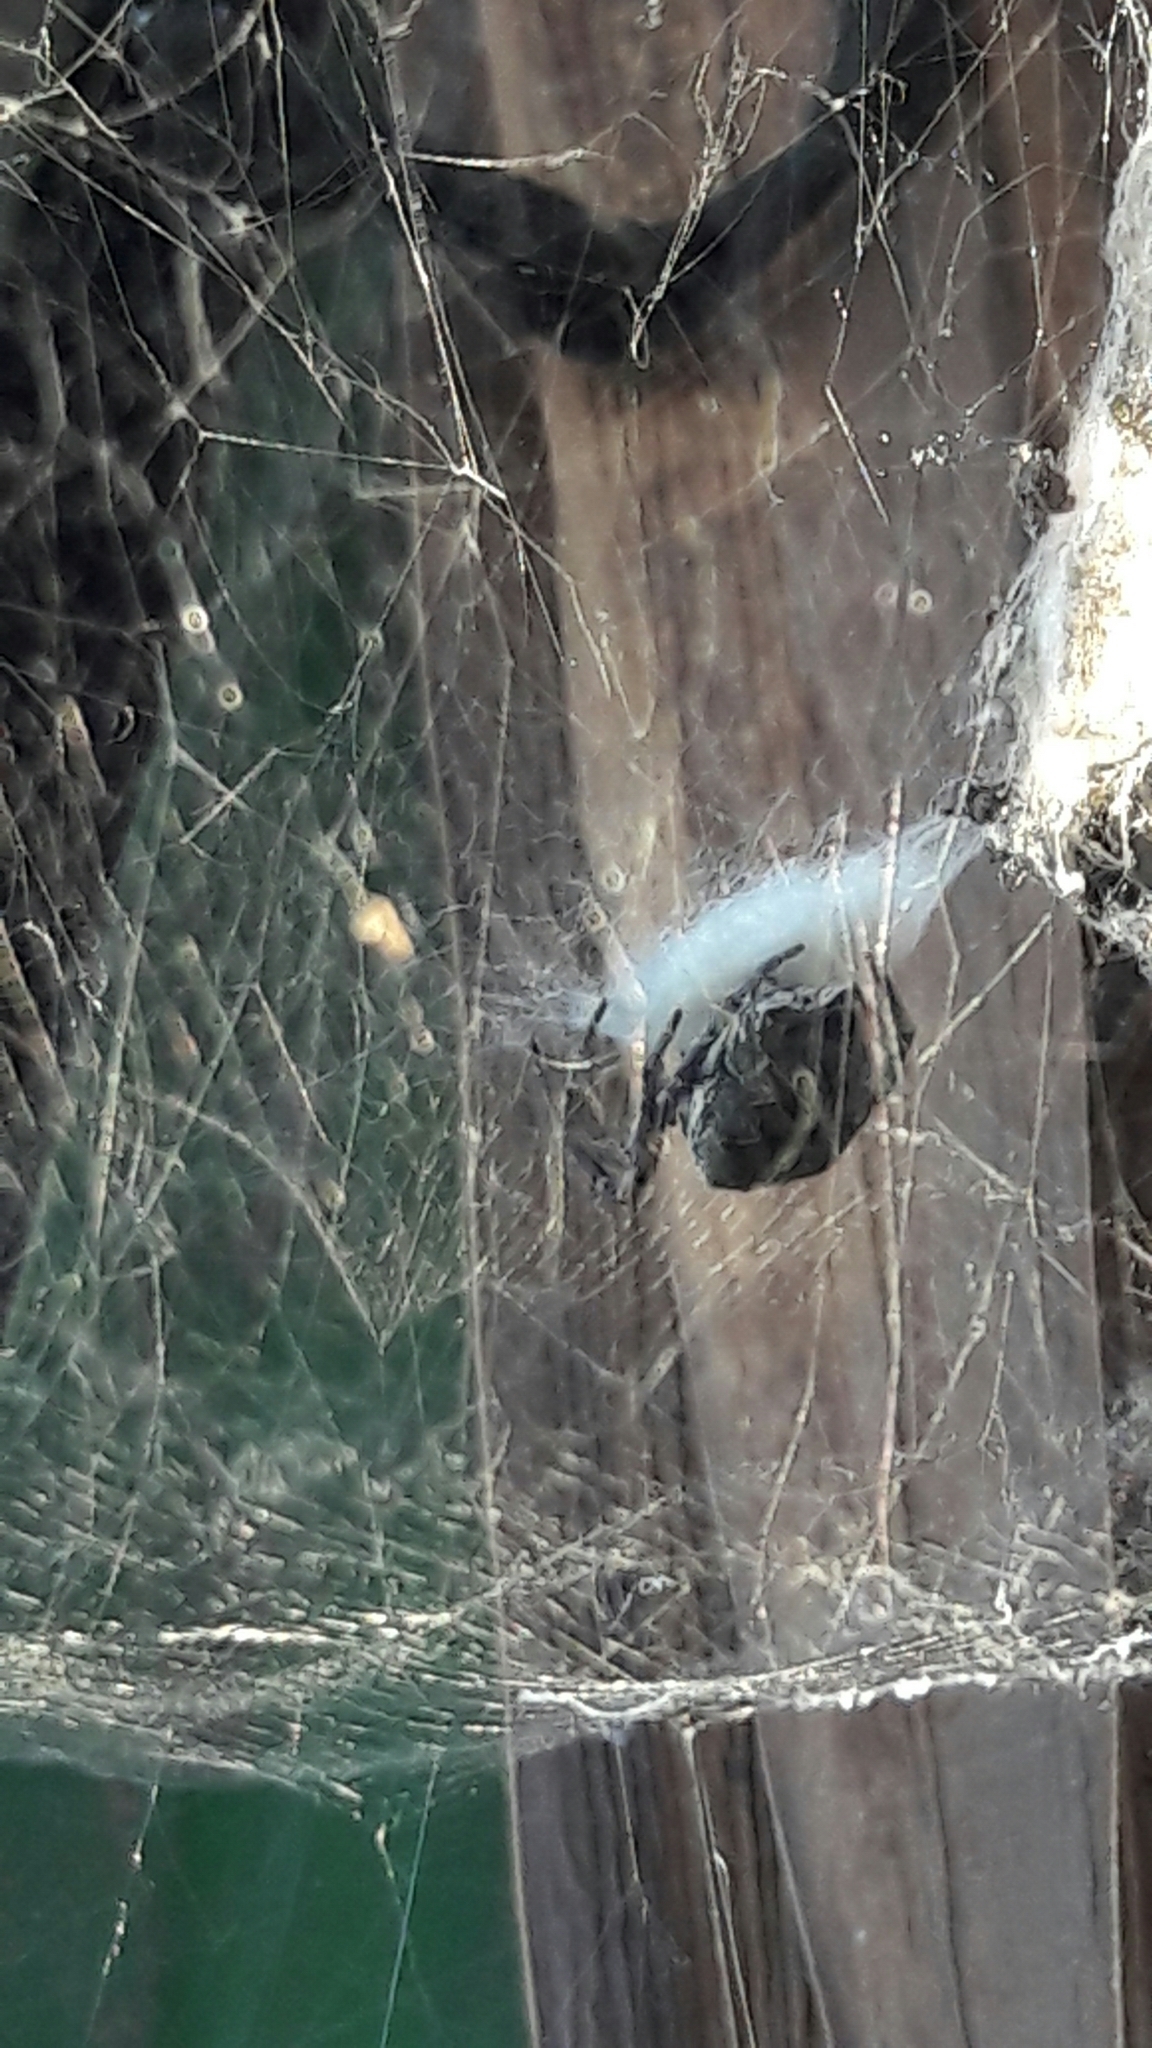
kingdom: Animalia
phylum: Arthropoda
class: Arachnida
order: Araneae
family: Araneidae
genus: Cyrtophora
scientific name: Cyrtophora citricola
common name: Orb weavers
